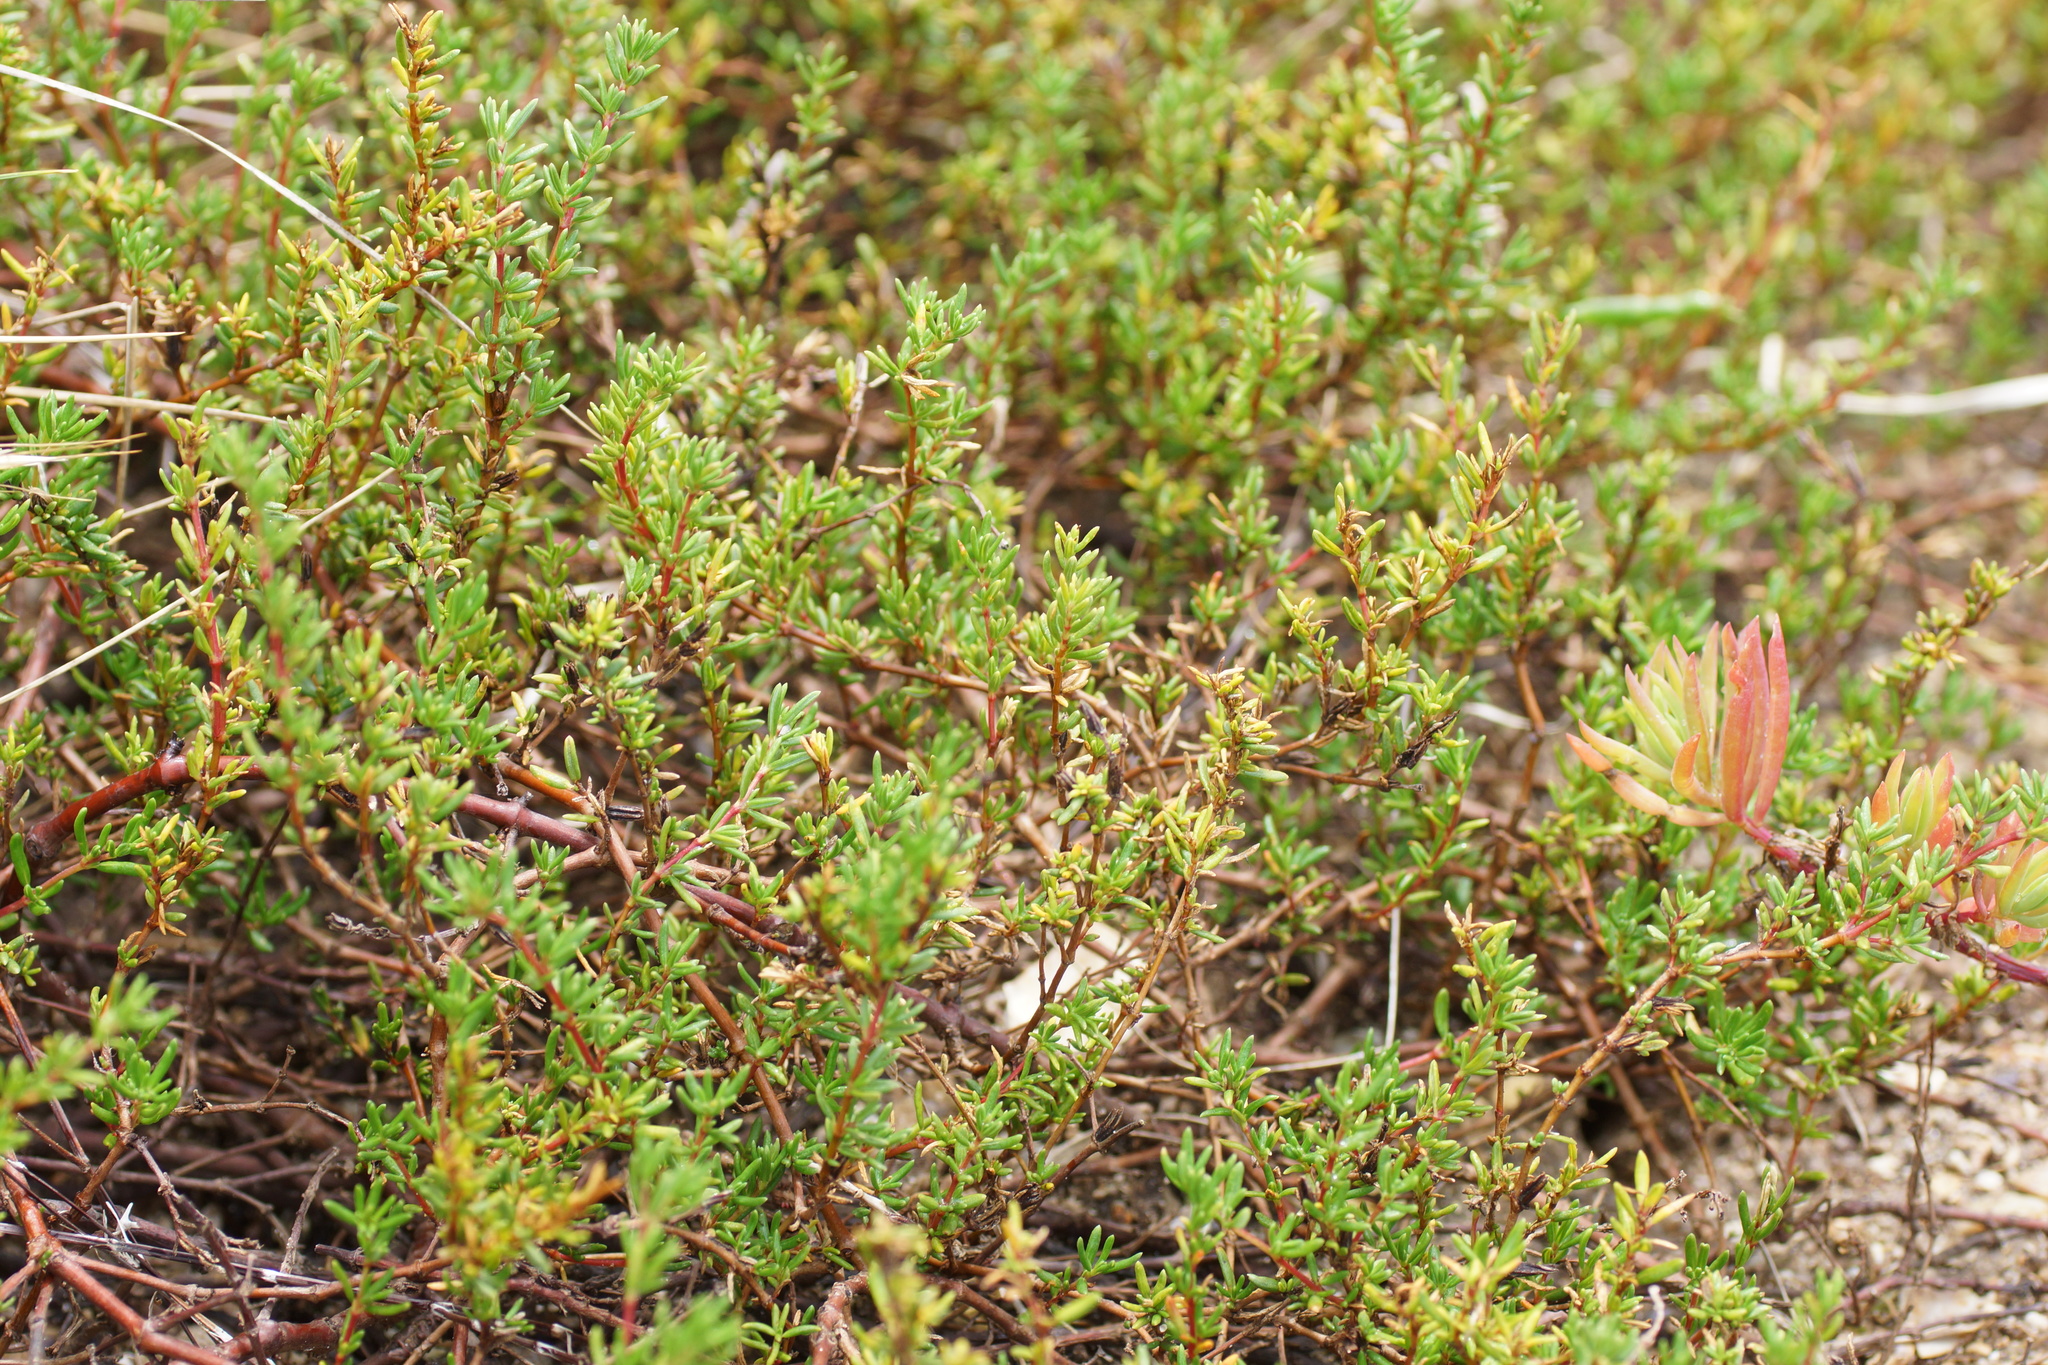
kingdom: Plantae
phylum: Tracheophyta
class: Magnoliopsida
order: Caryophyllales
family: Amaranthaceae
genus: Suaeda
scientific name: Suaeda australis
